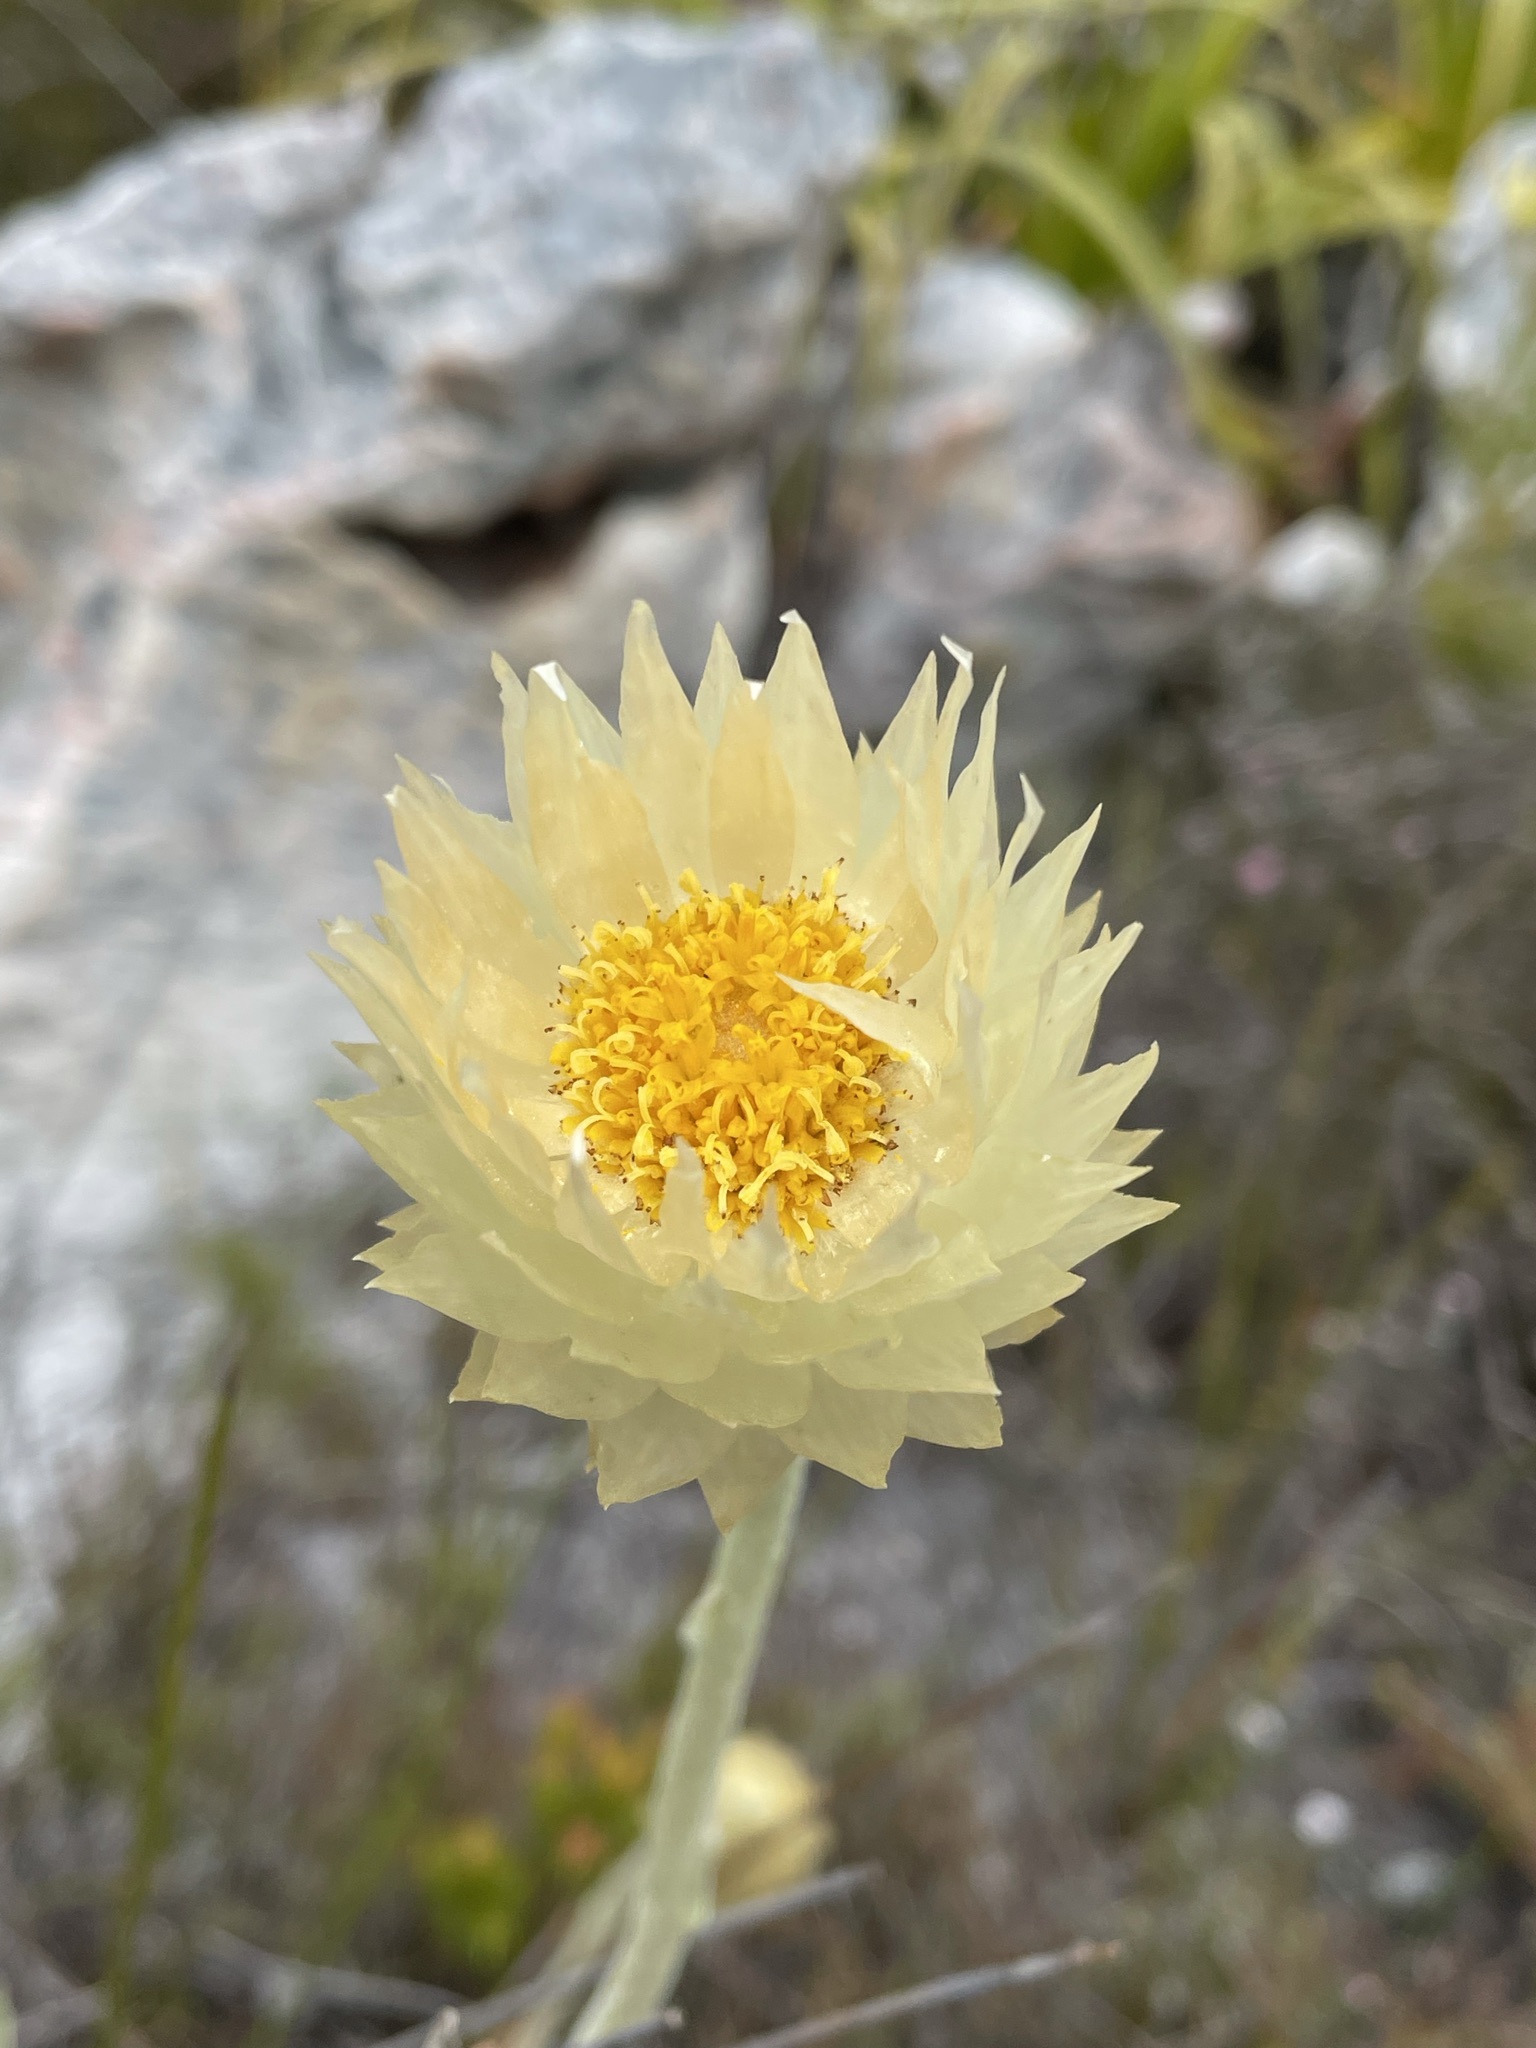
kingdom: Plantae
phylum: Tracheophyta
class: Magnoliopsida
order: Asterales
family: Asteraceae
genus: Syncarpha
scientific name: Syncarpha speciosissima
